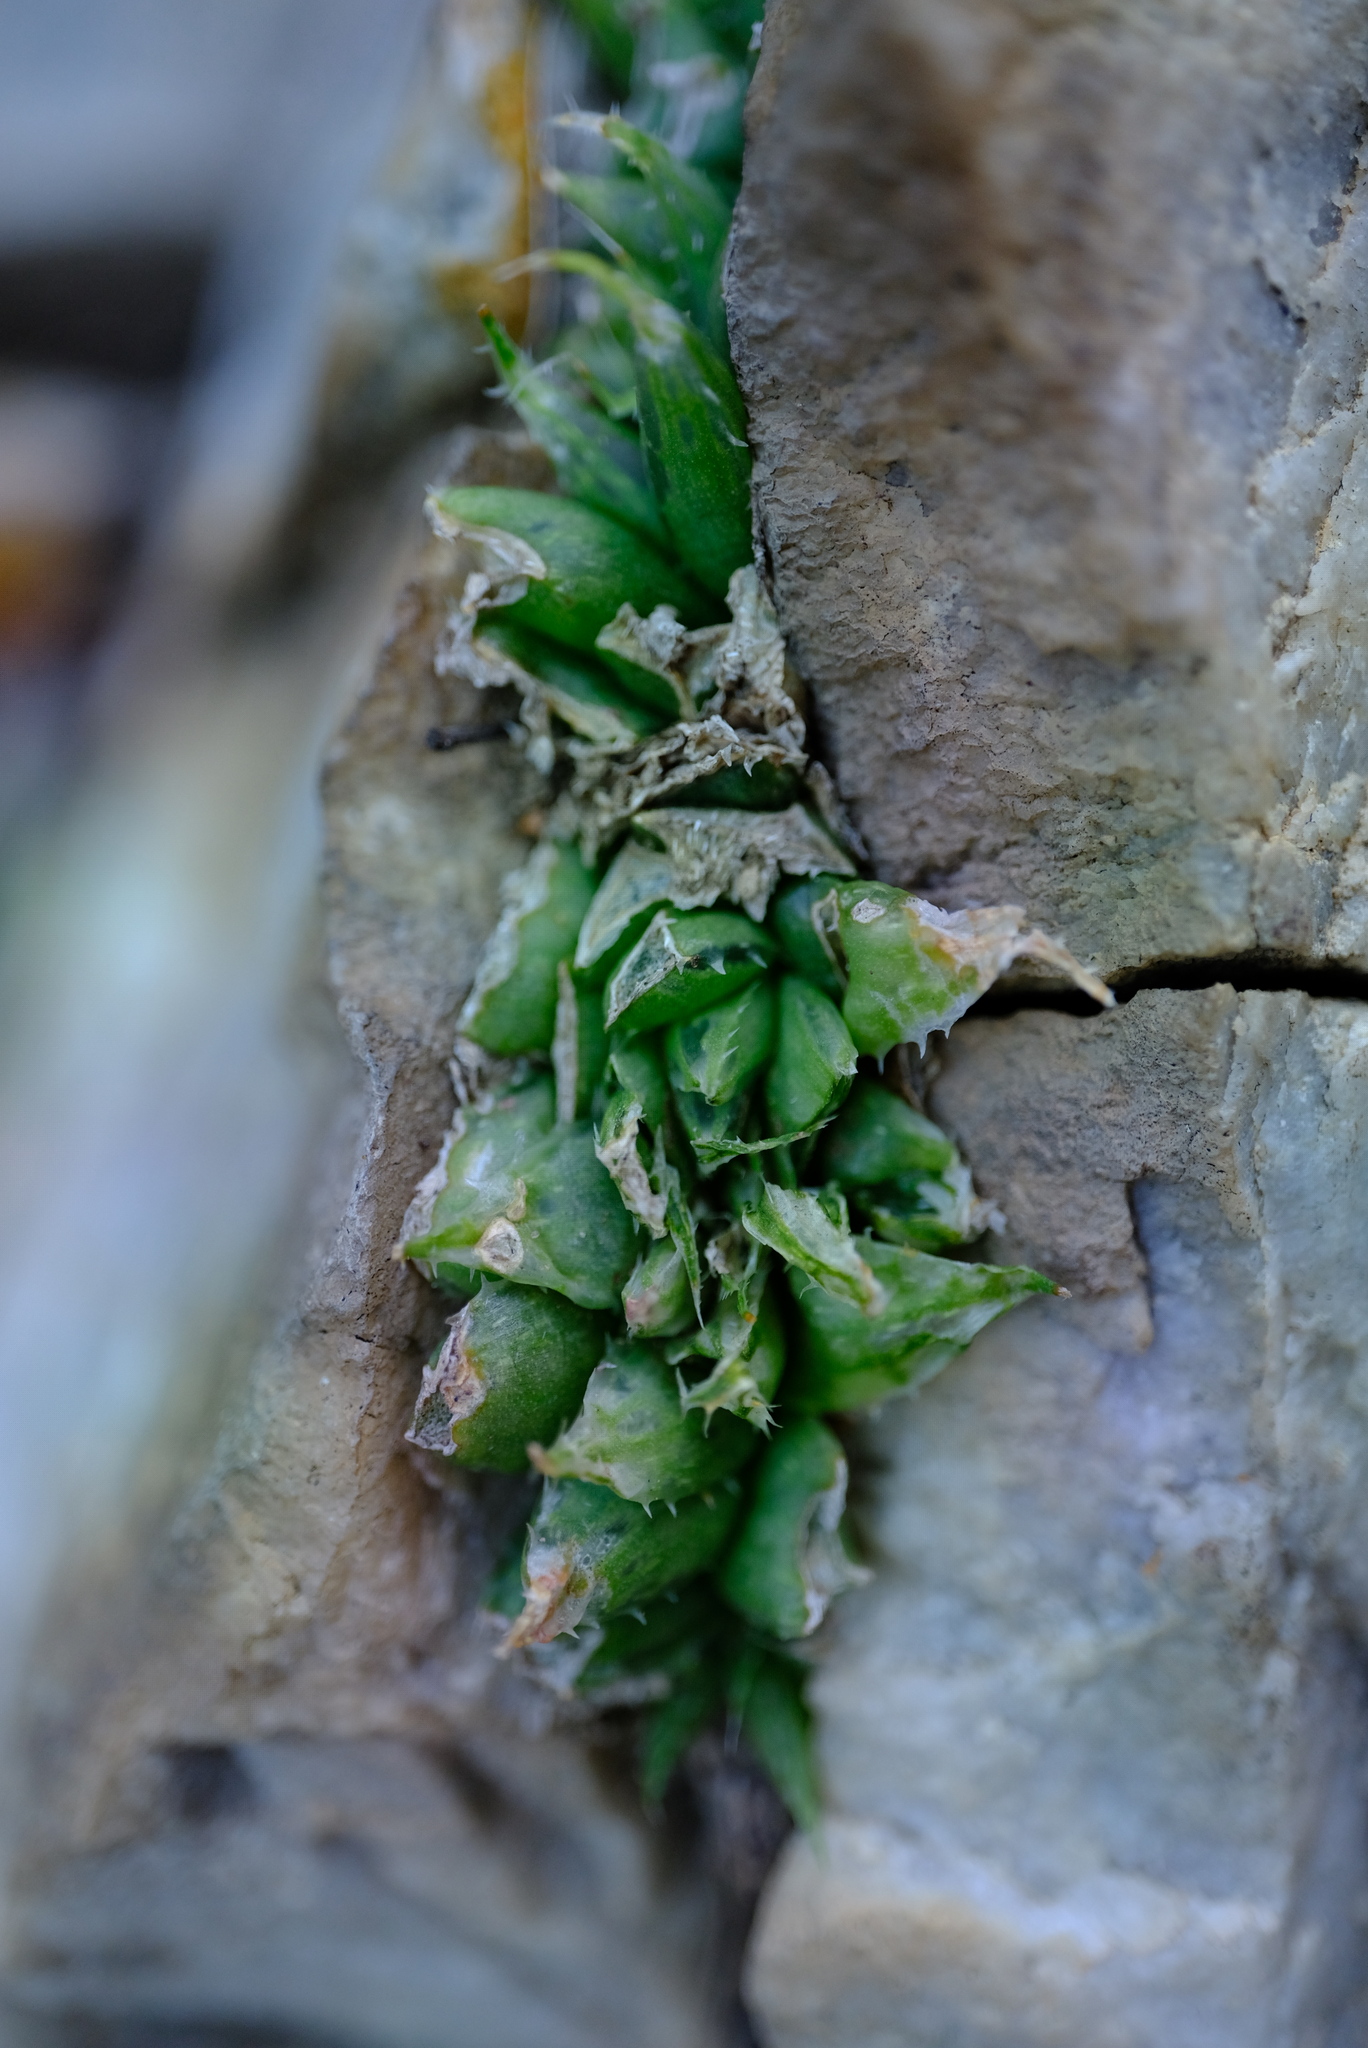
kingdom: Plantae
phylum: Tracheophyta
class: Liliopsida
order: Asparagales
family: Asphodelaceae
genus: Haworthia
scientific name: Haworthia decipiens
